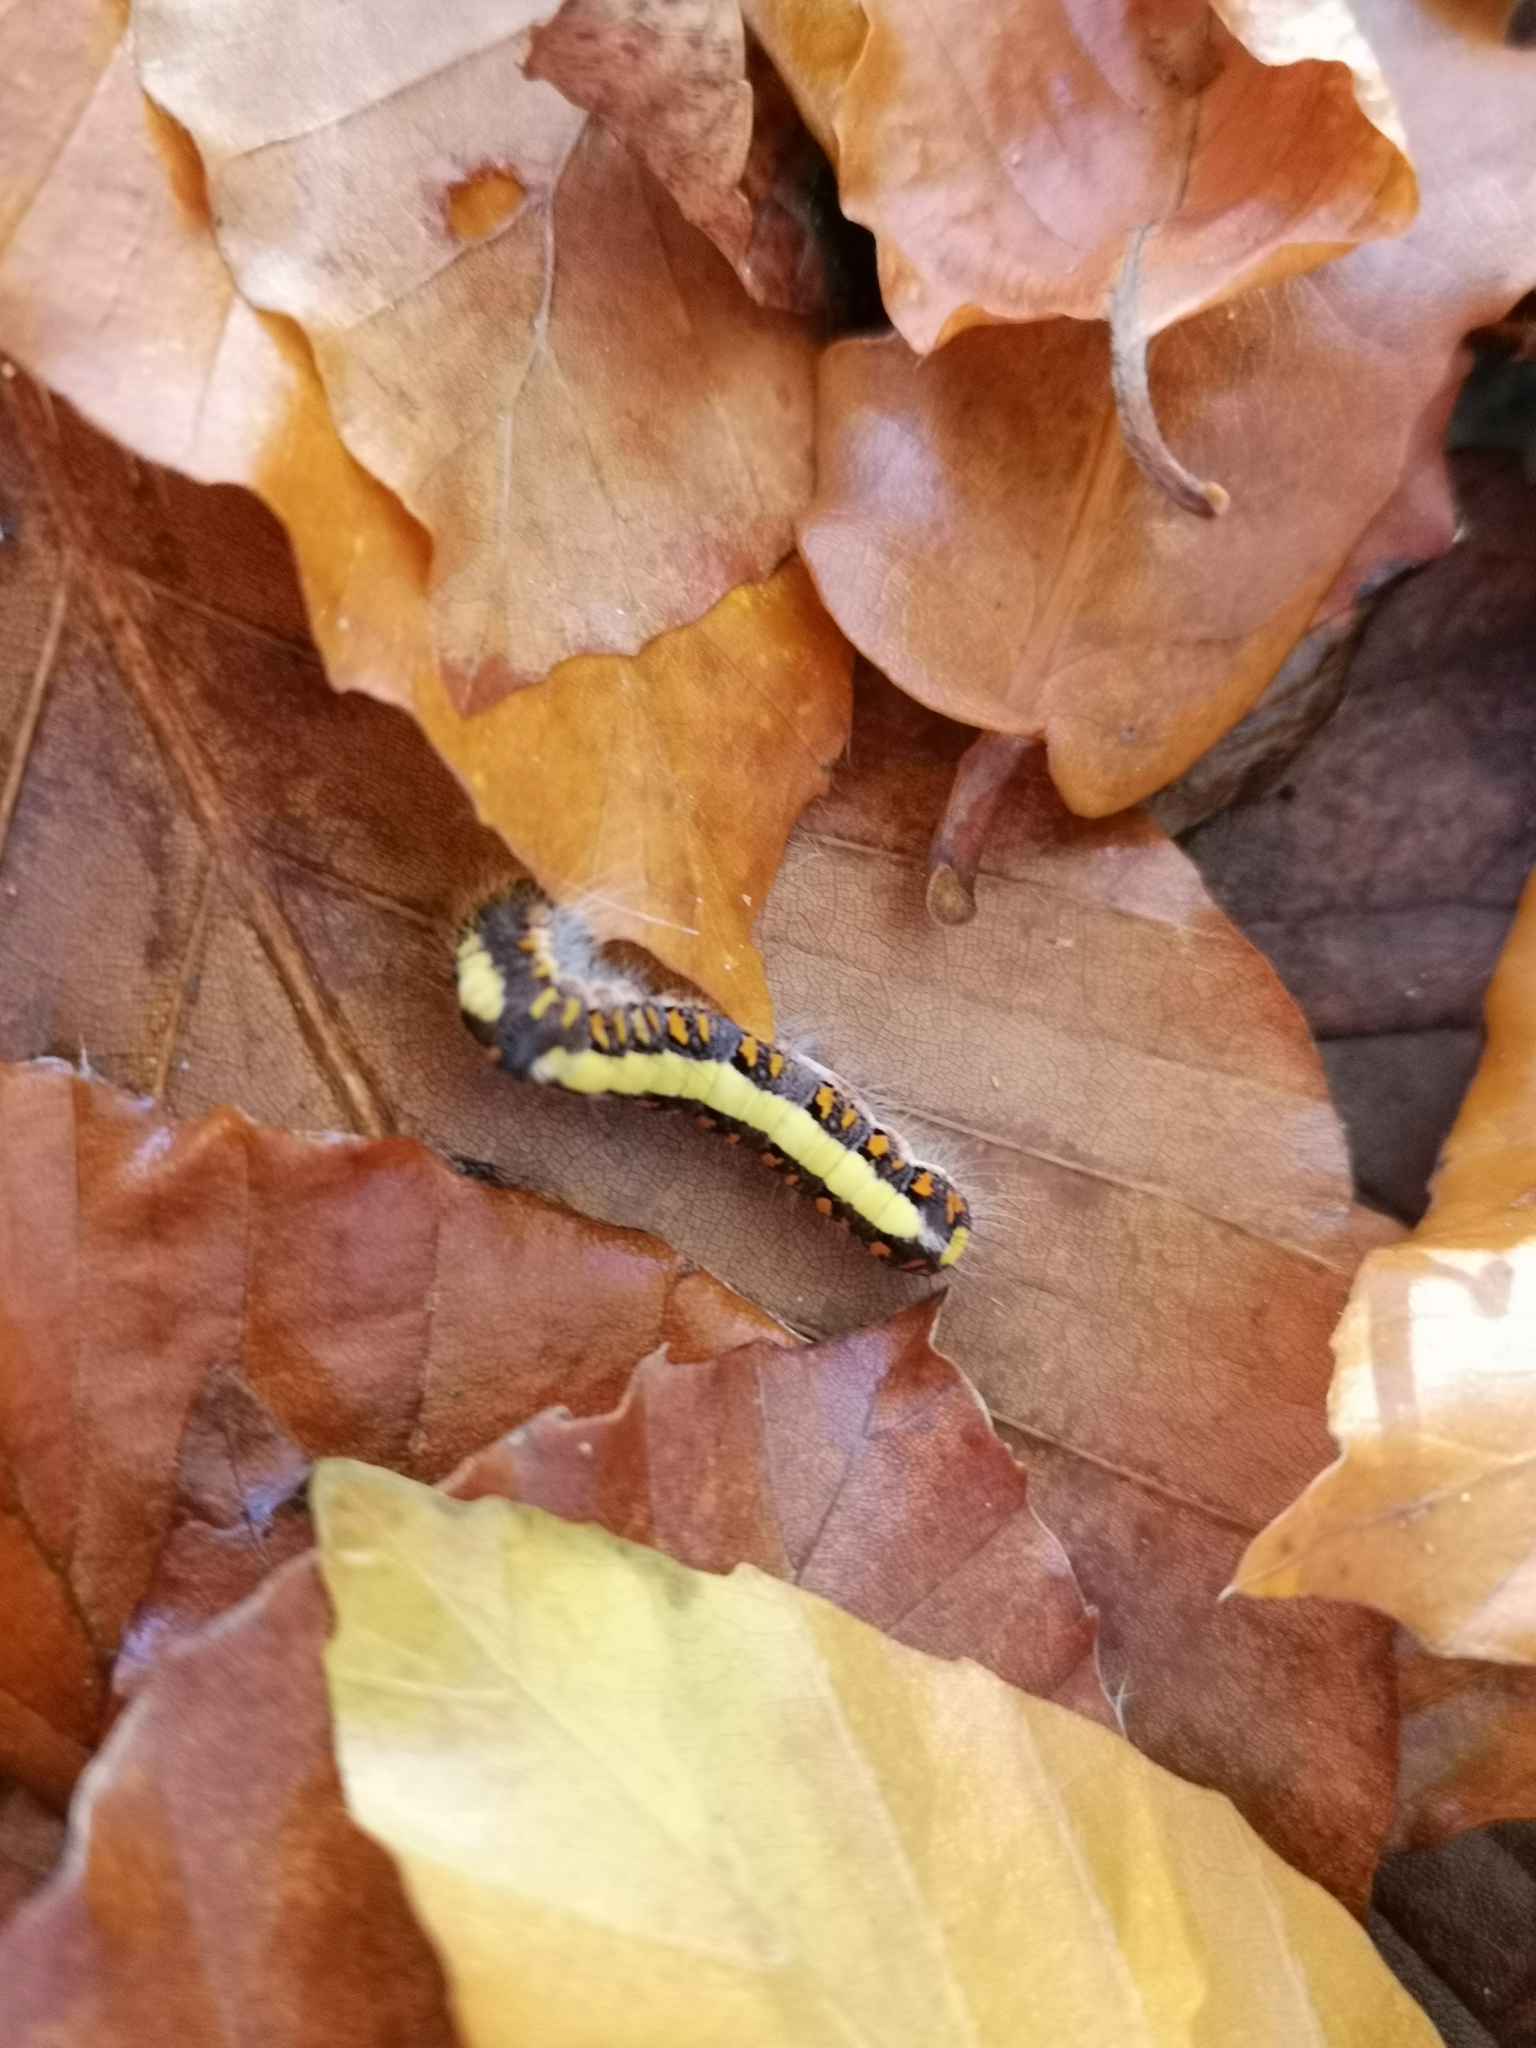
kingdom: Animalia
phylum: Arthropoda
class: Insecta
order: Lepidoptera
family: Noctuidae
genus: Acronicta
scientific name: Acronicta psi
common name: Grey dagger
